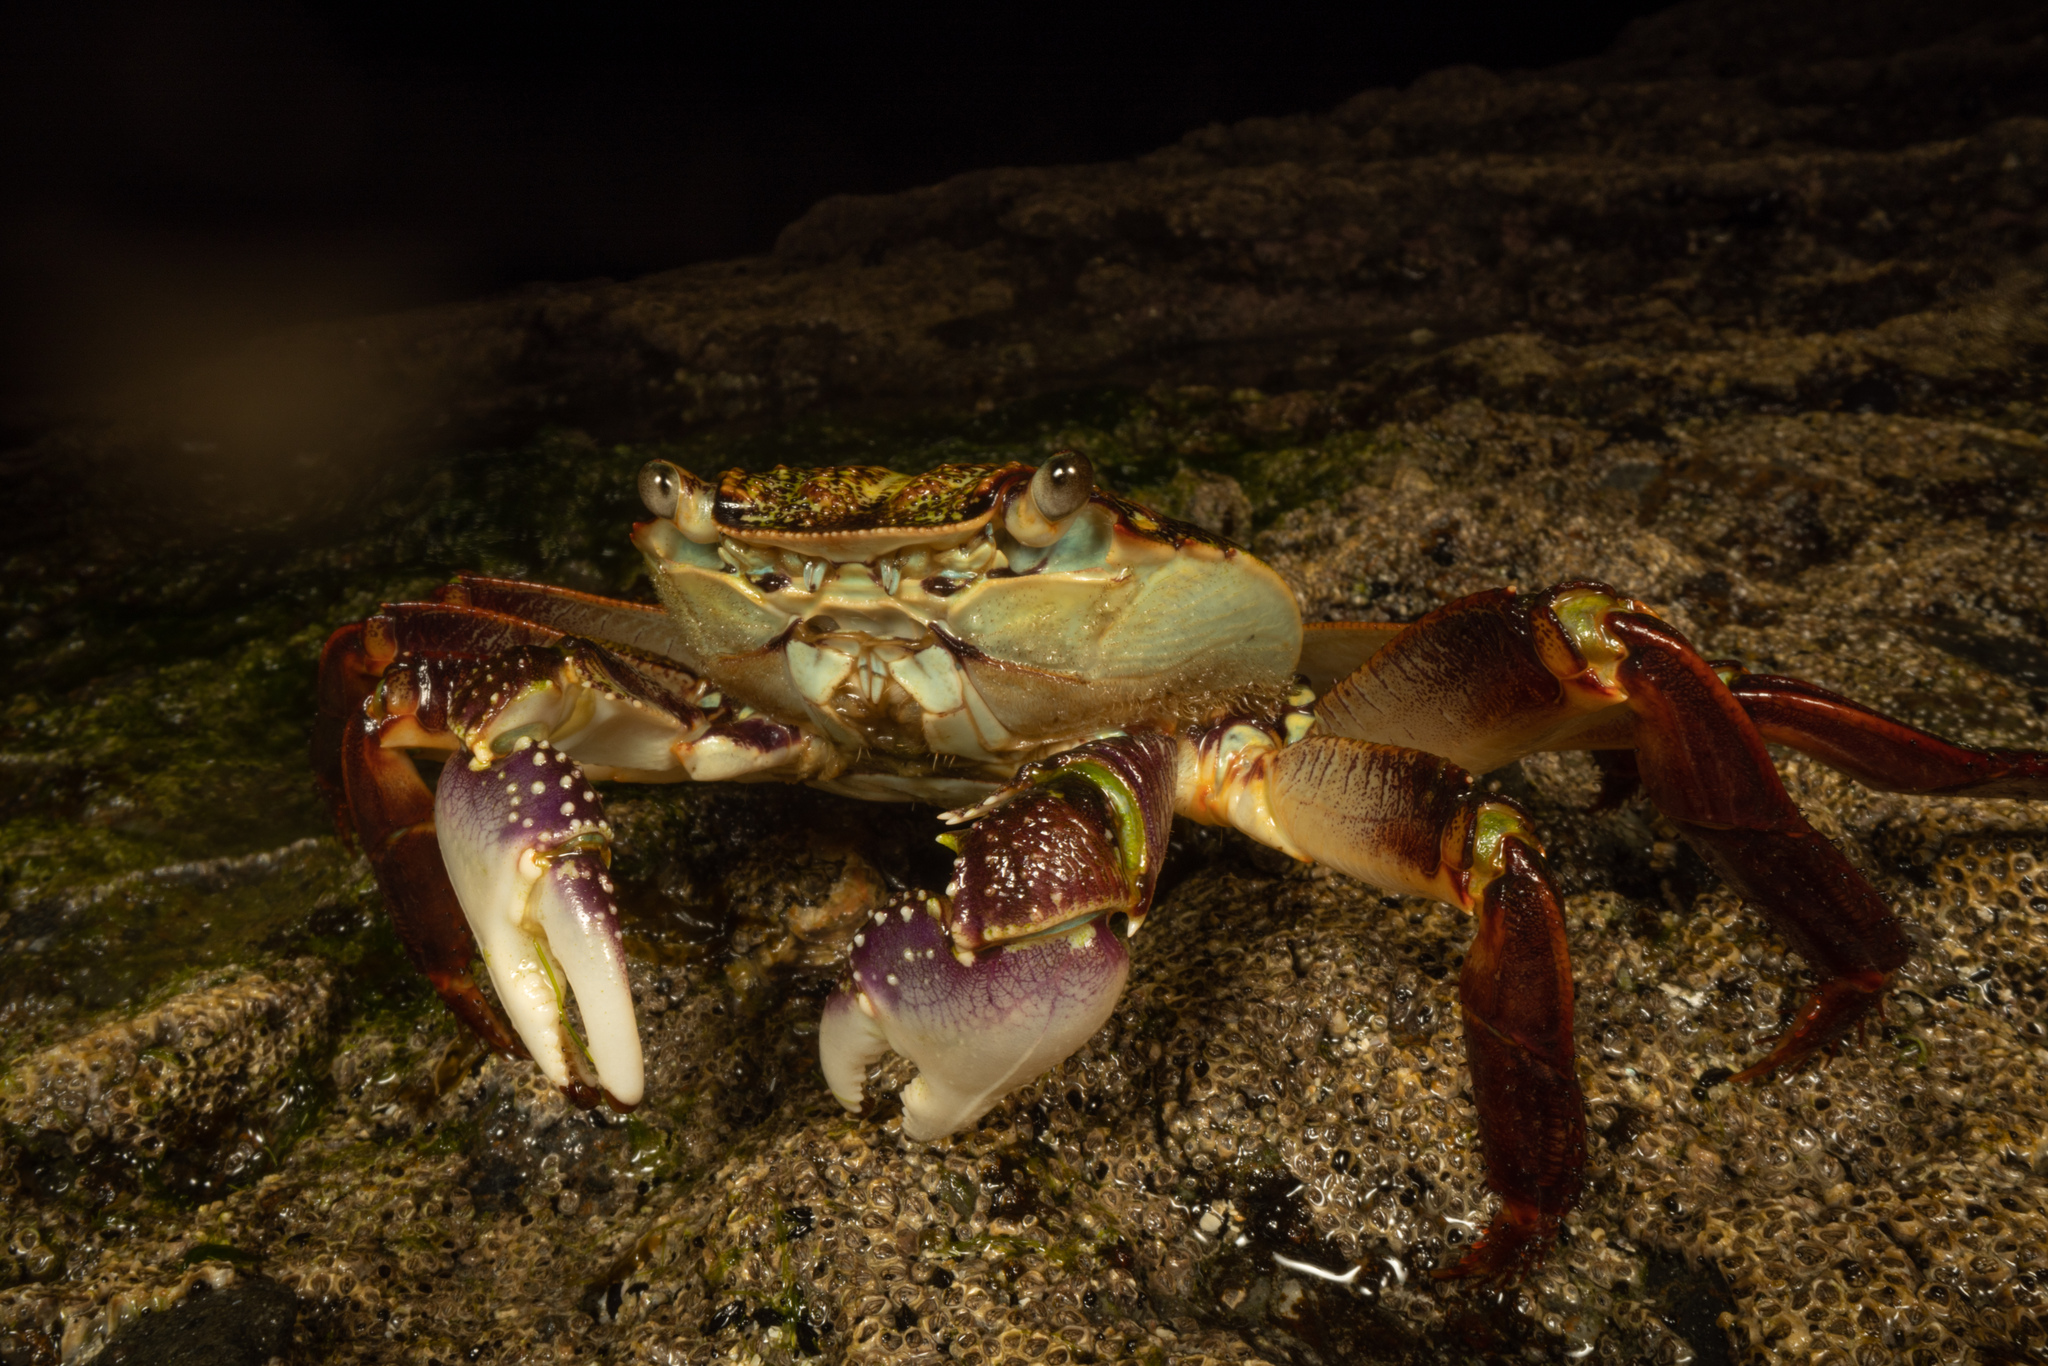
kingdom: Animalia
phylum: Arthropoda
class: Malacostraca
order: Decapoda
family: Grapsidae
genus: Leptograpsus
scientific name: Leptograpsus variegatus
